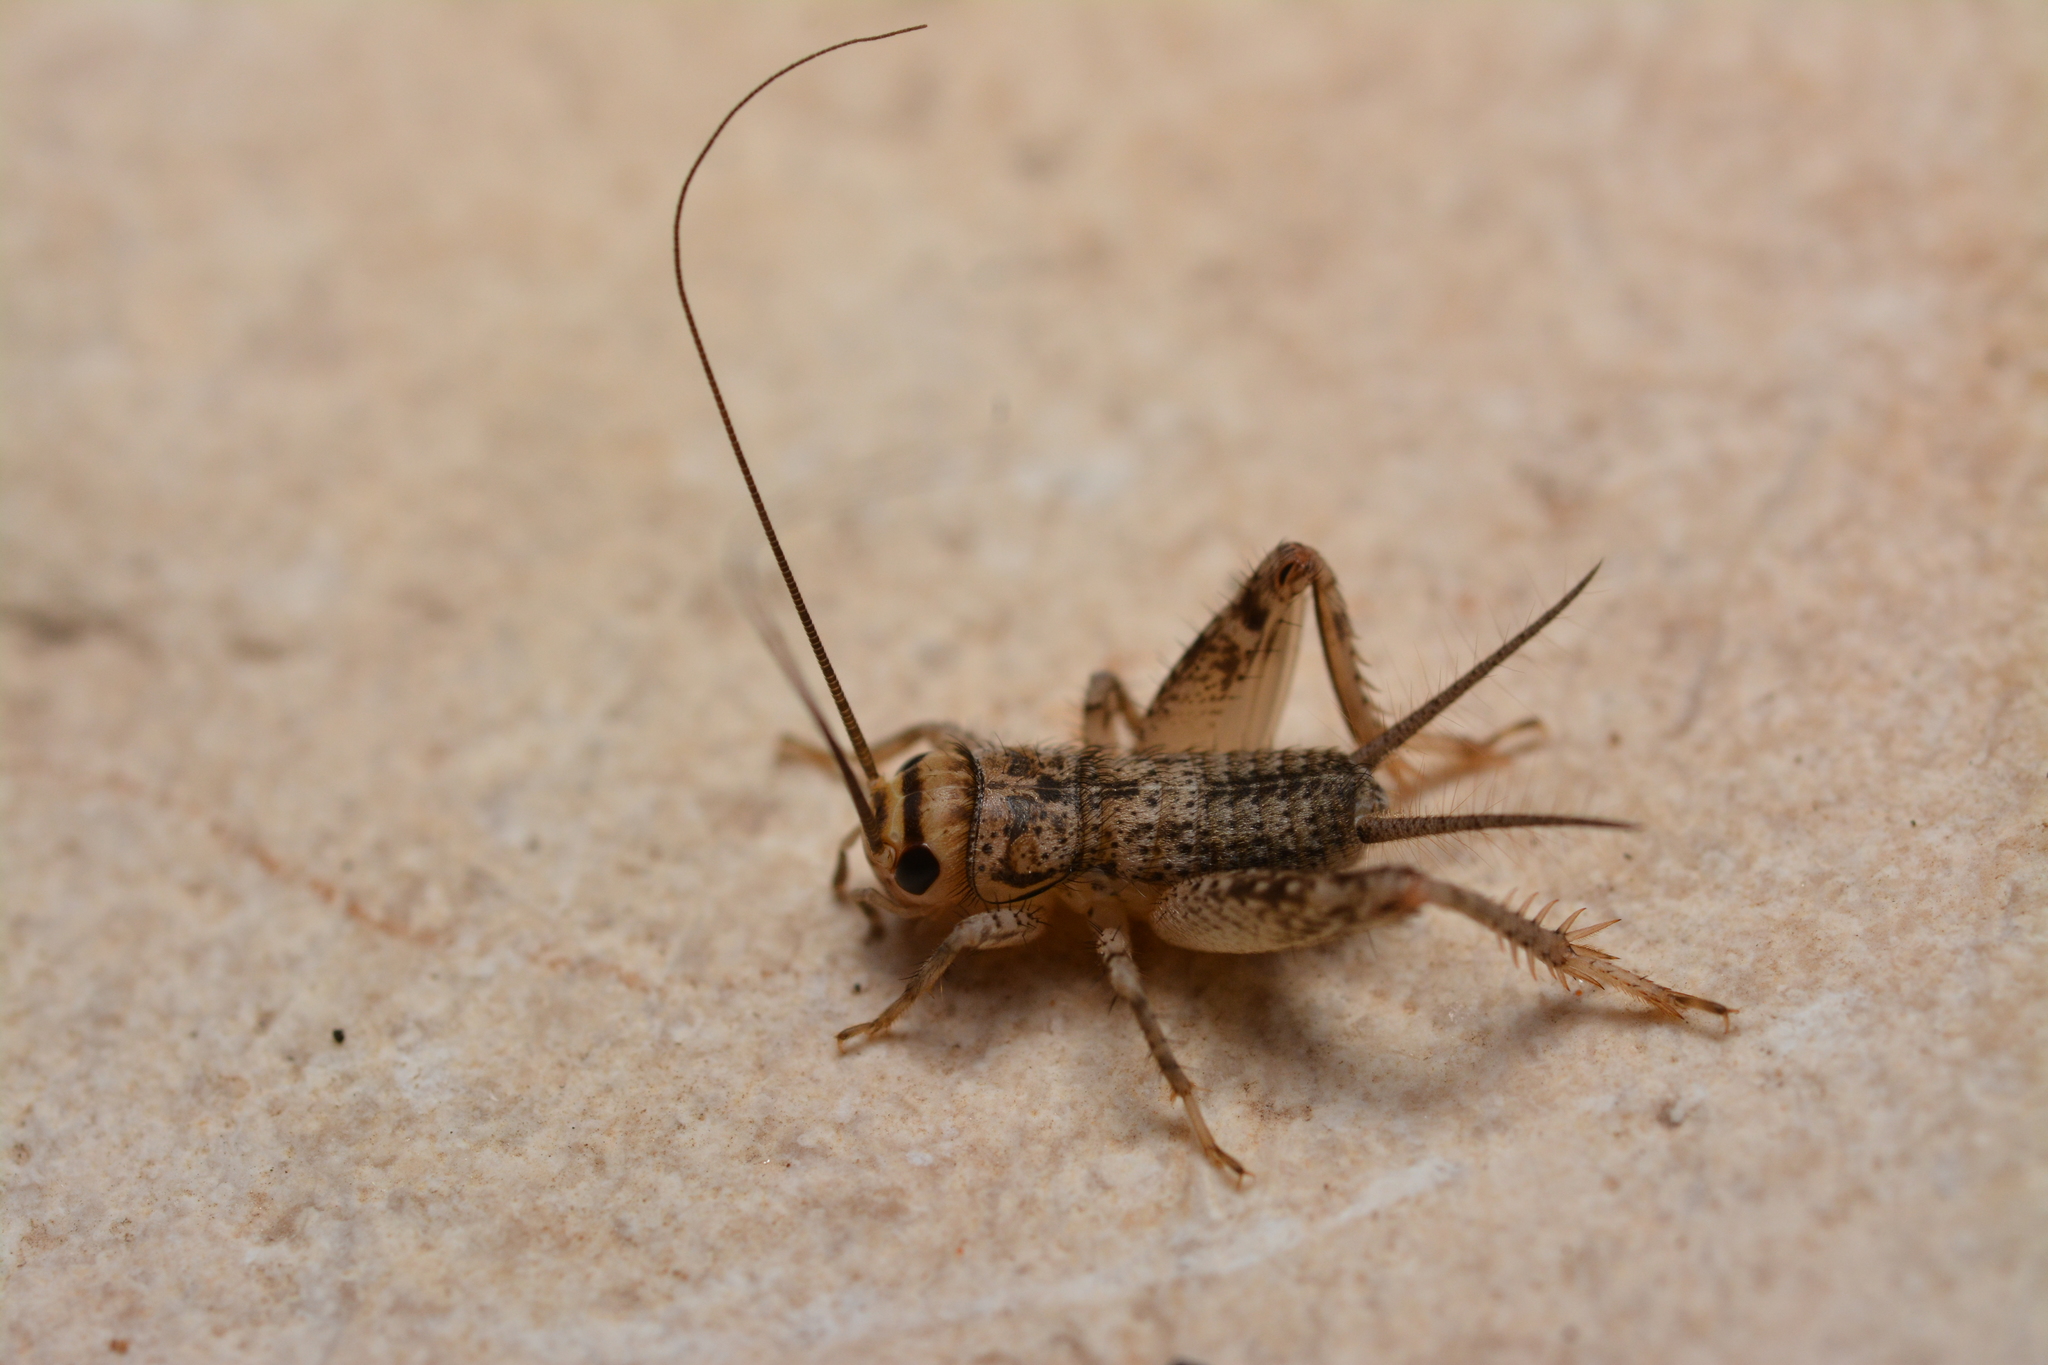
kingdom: Animalia
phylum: Arthropoda
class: Insecta
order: Orthoptera
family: Gryllidae
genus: Eumodicogryllus
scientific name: Eumodicogryllus bordigalensis
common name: Bordeaux cricket
